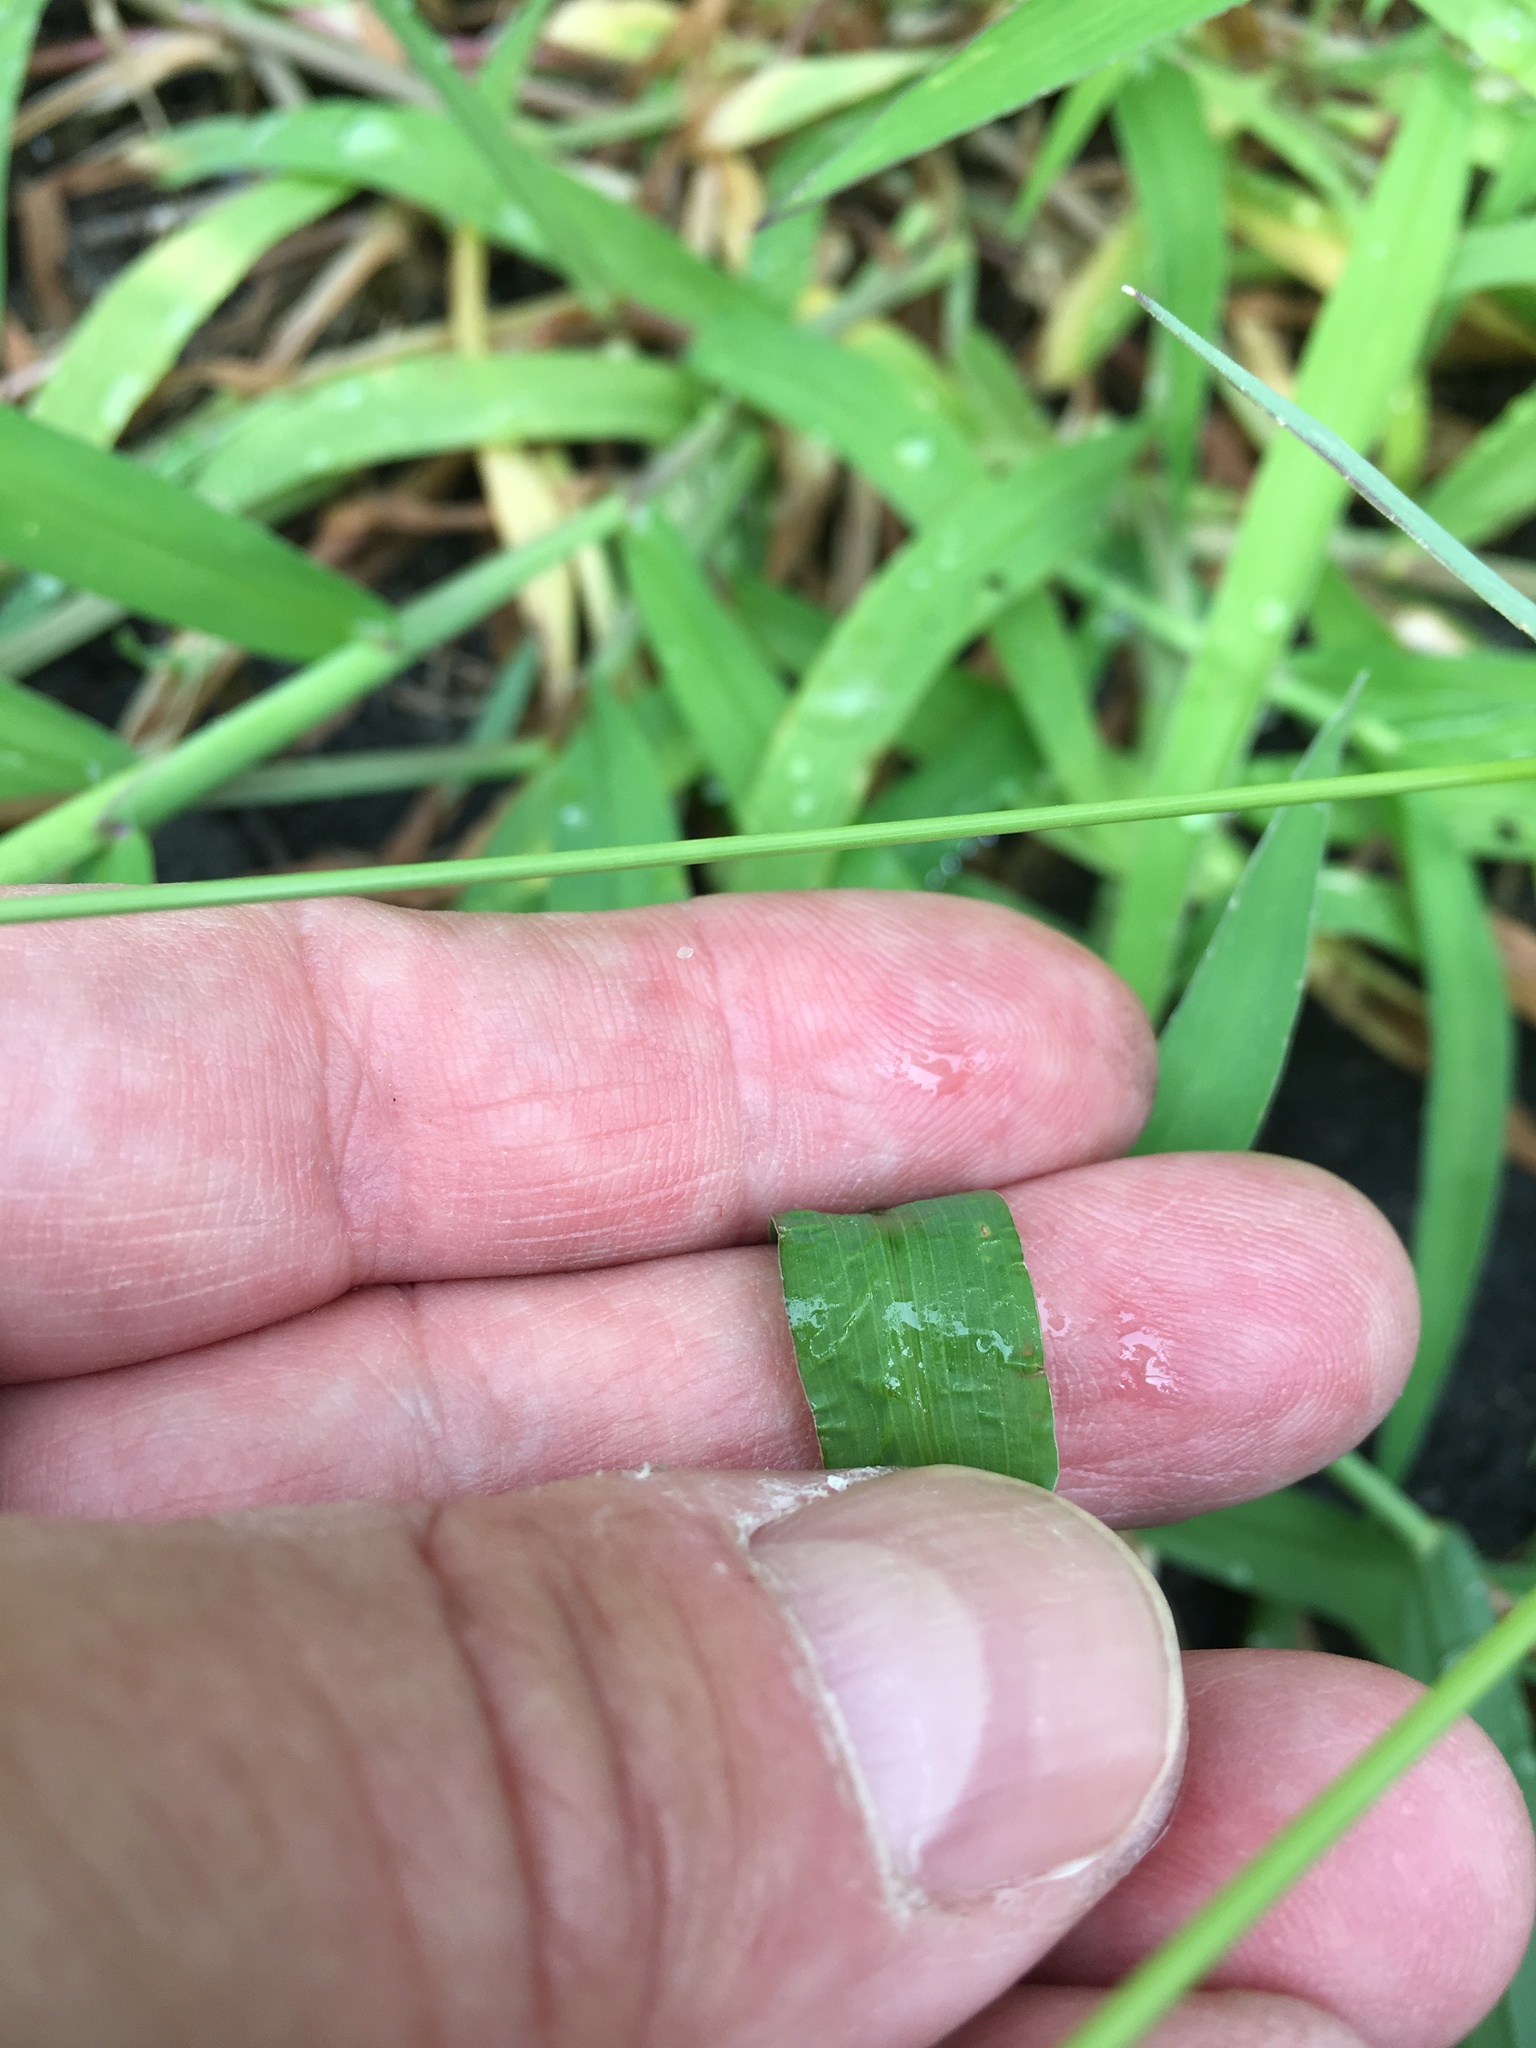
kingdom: Plantae
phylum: Tracheophyta
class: Liliopsida
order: Poales
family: Poaceae
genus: Digitaria
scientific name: Digitaria ischaemum
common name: Smooth crabgrass
